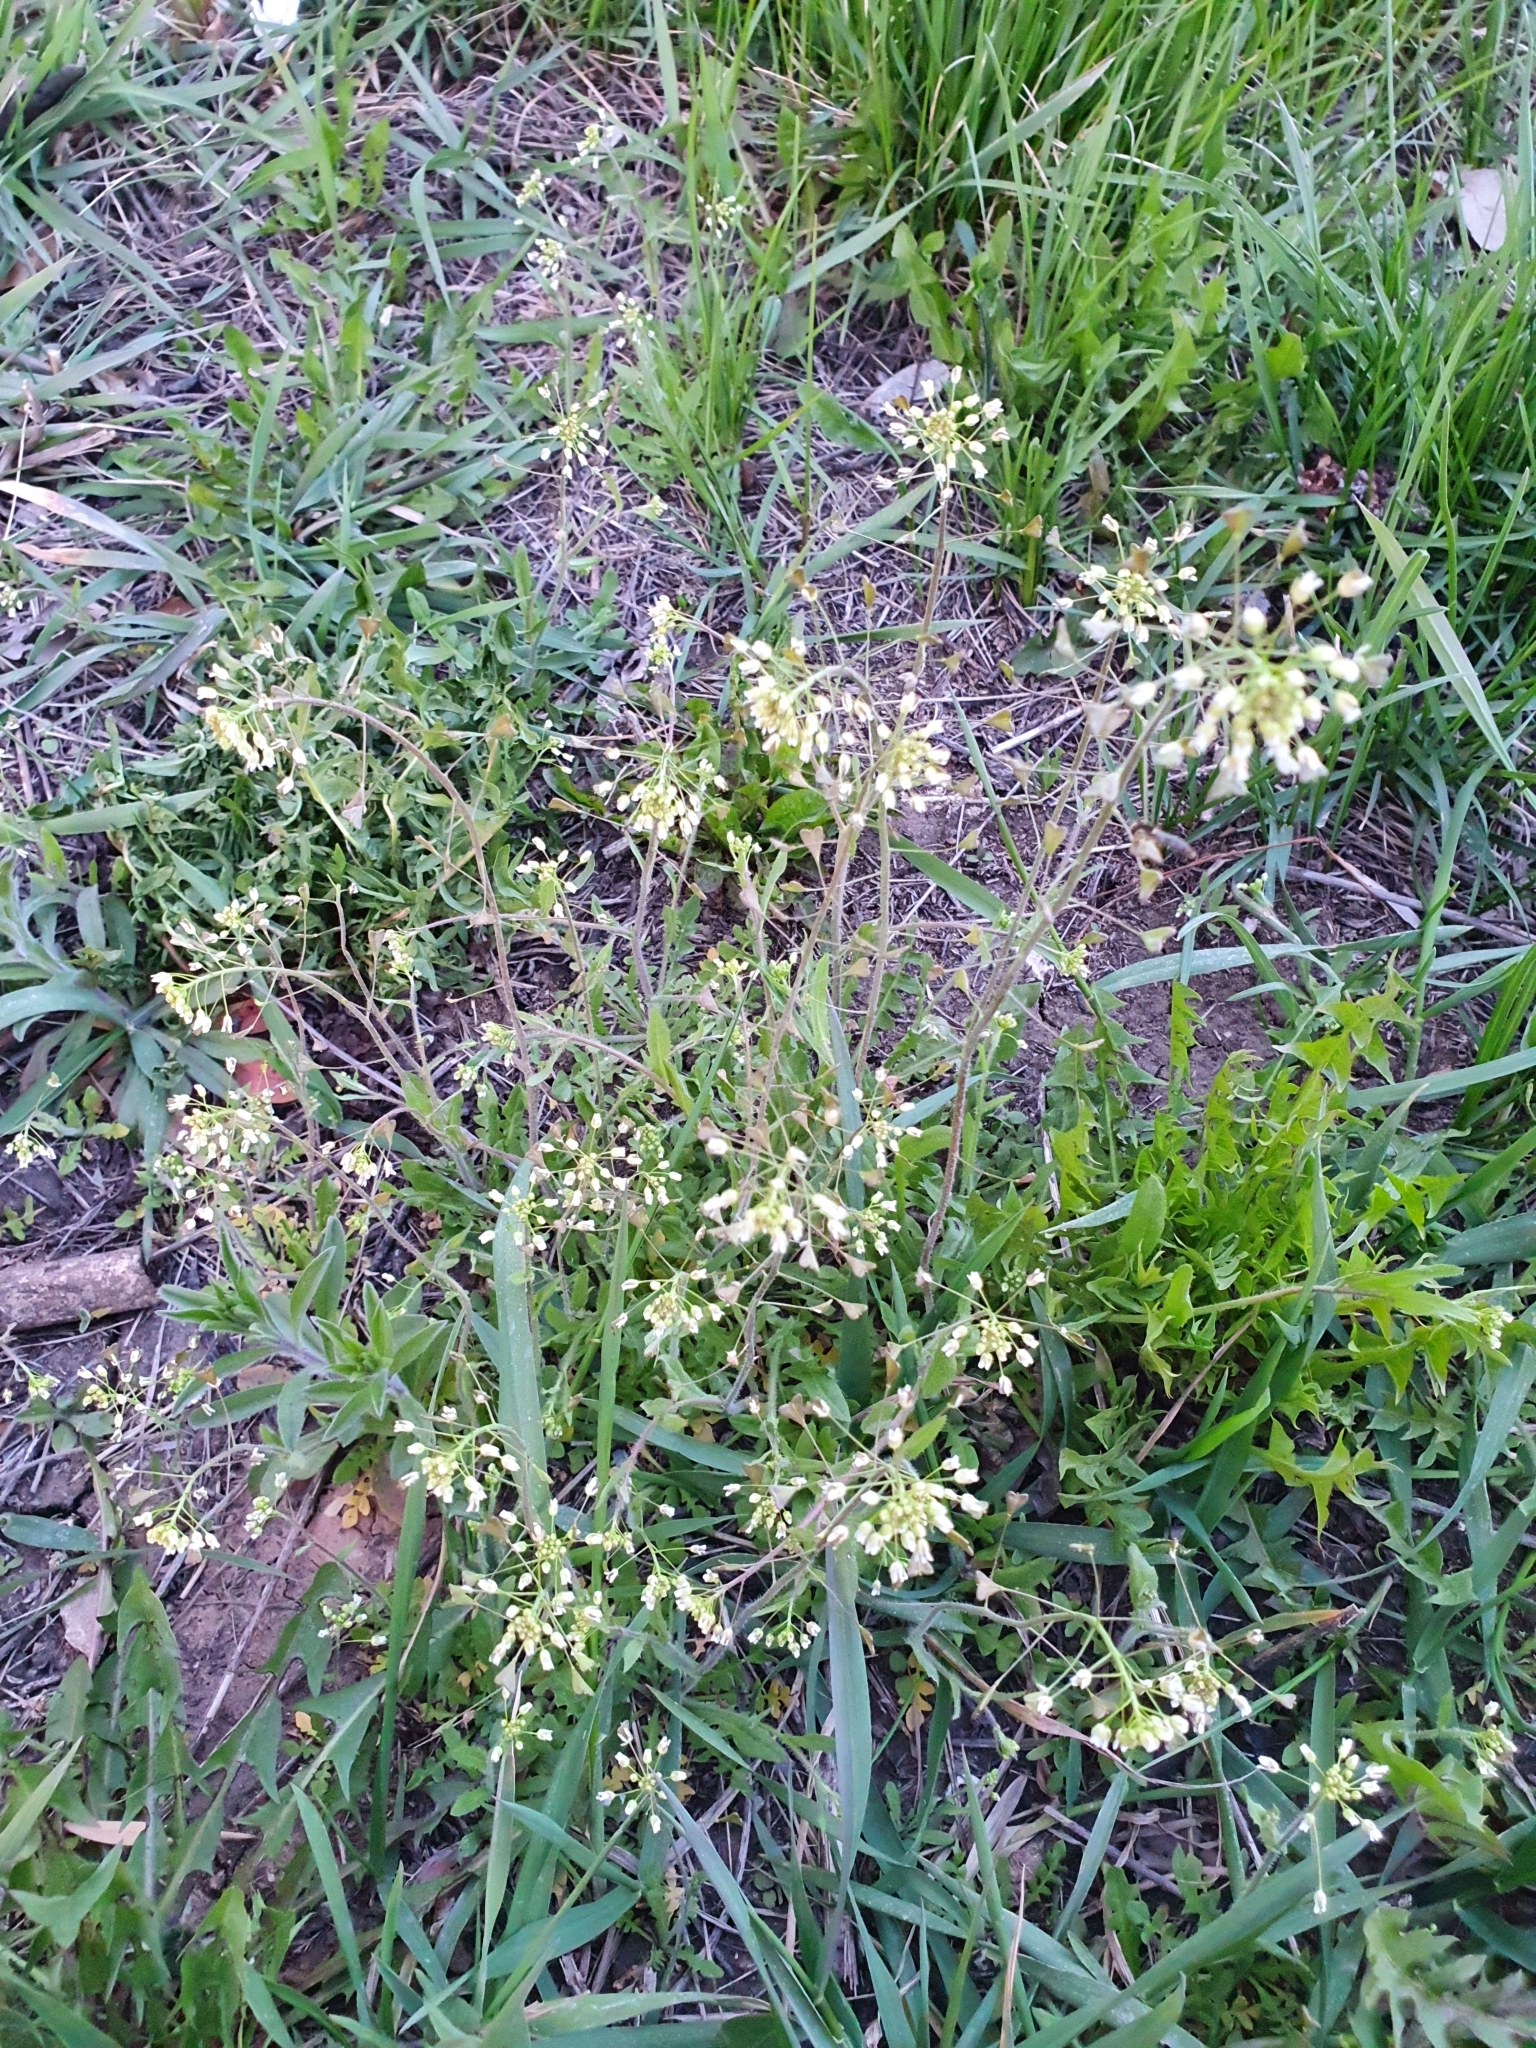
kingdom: Plantae
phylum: Tracheophyta
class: Magnoliopsida
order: Brassicales
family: Brassicaceae
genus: Capsella
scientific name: Capsella bursa-pastoris
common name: Shepherd's purse
